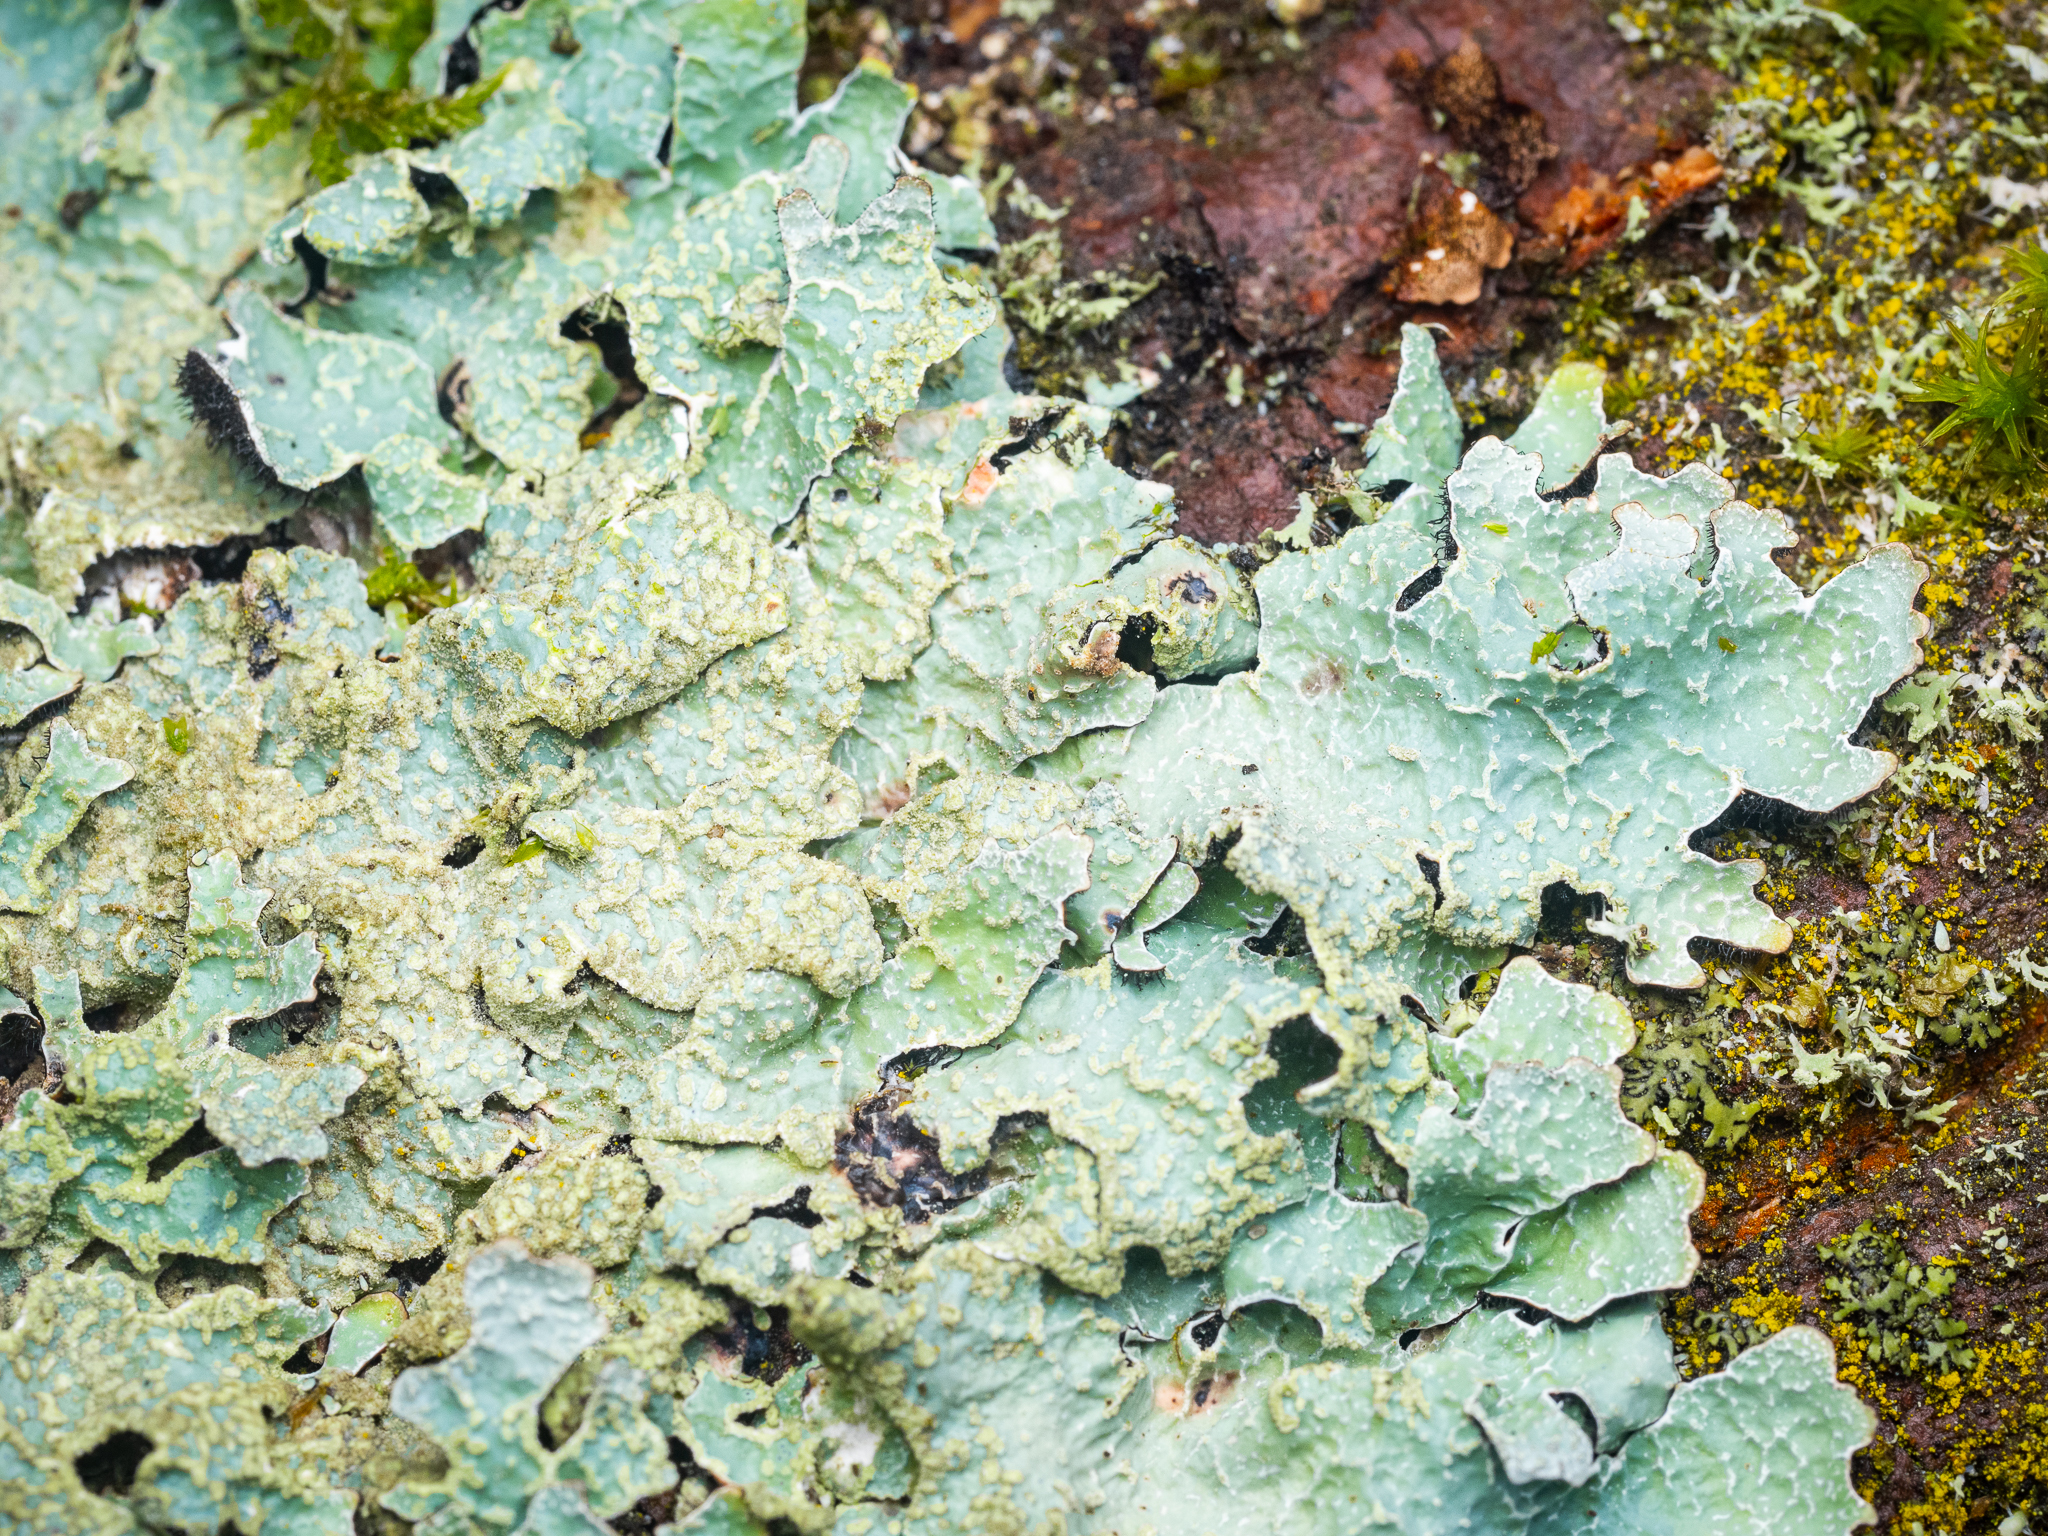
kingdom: Fungi
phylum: Ascomycota
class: Lecanoromycetes
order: Lecanorales
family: Parmeliaceae
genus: Parmelia
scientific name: Parmelia sulcata
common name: Netted shield lichen
